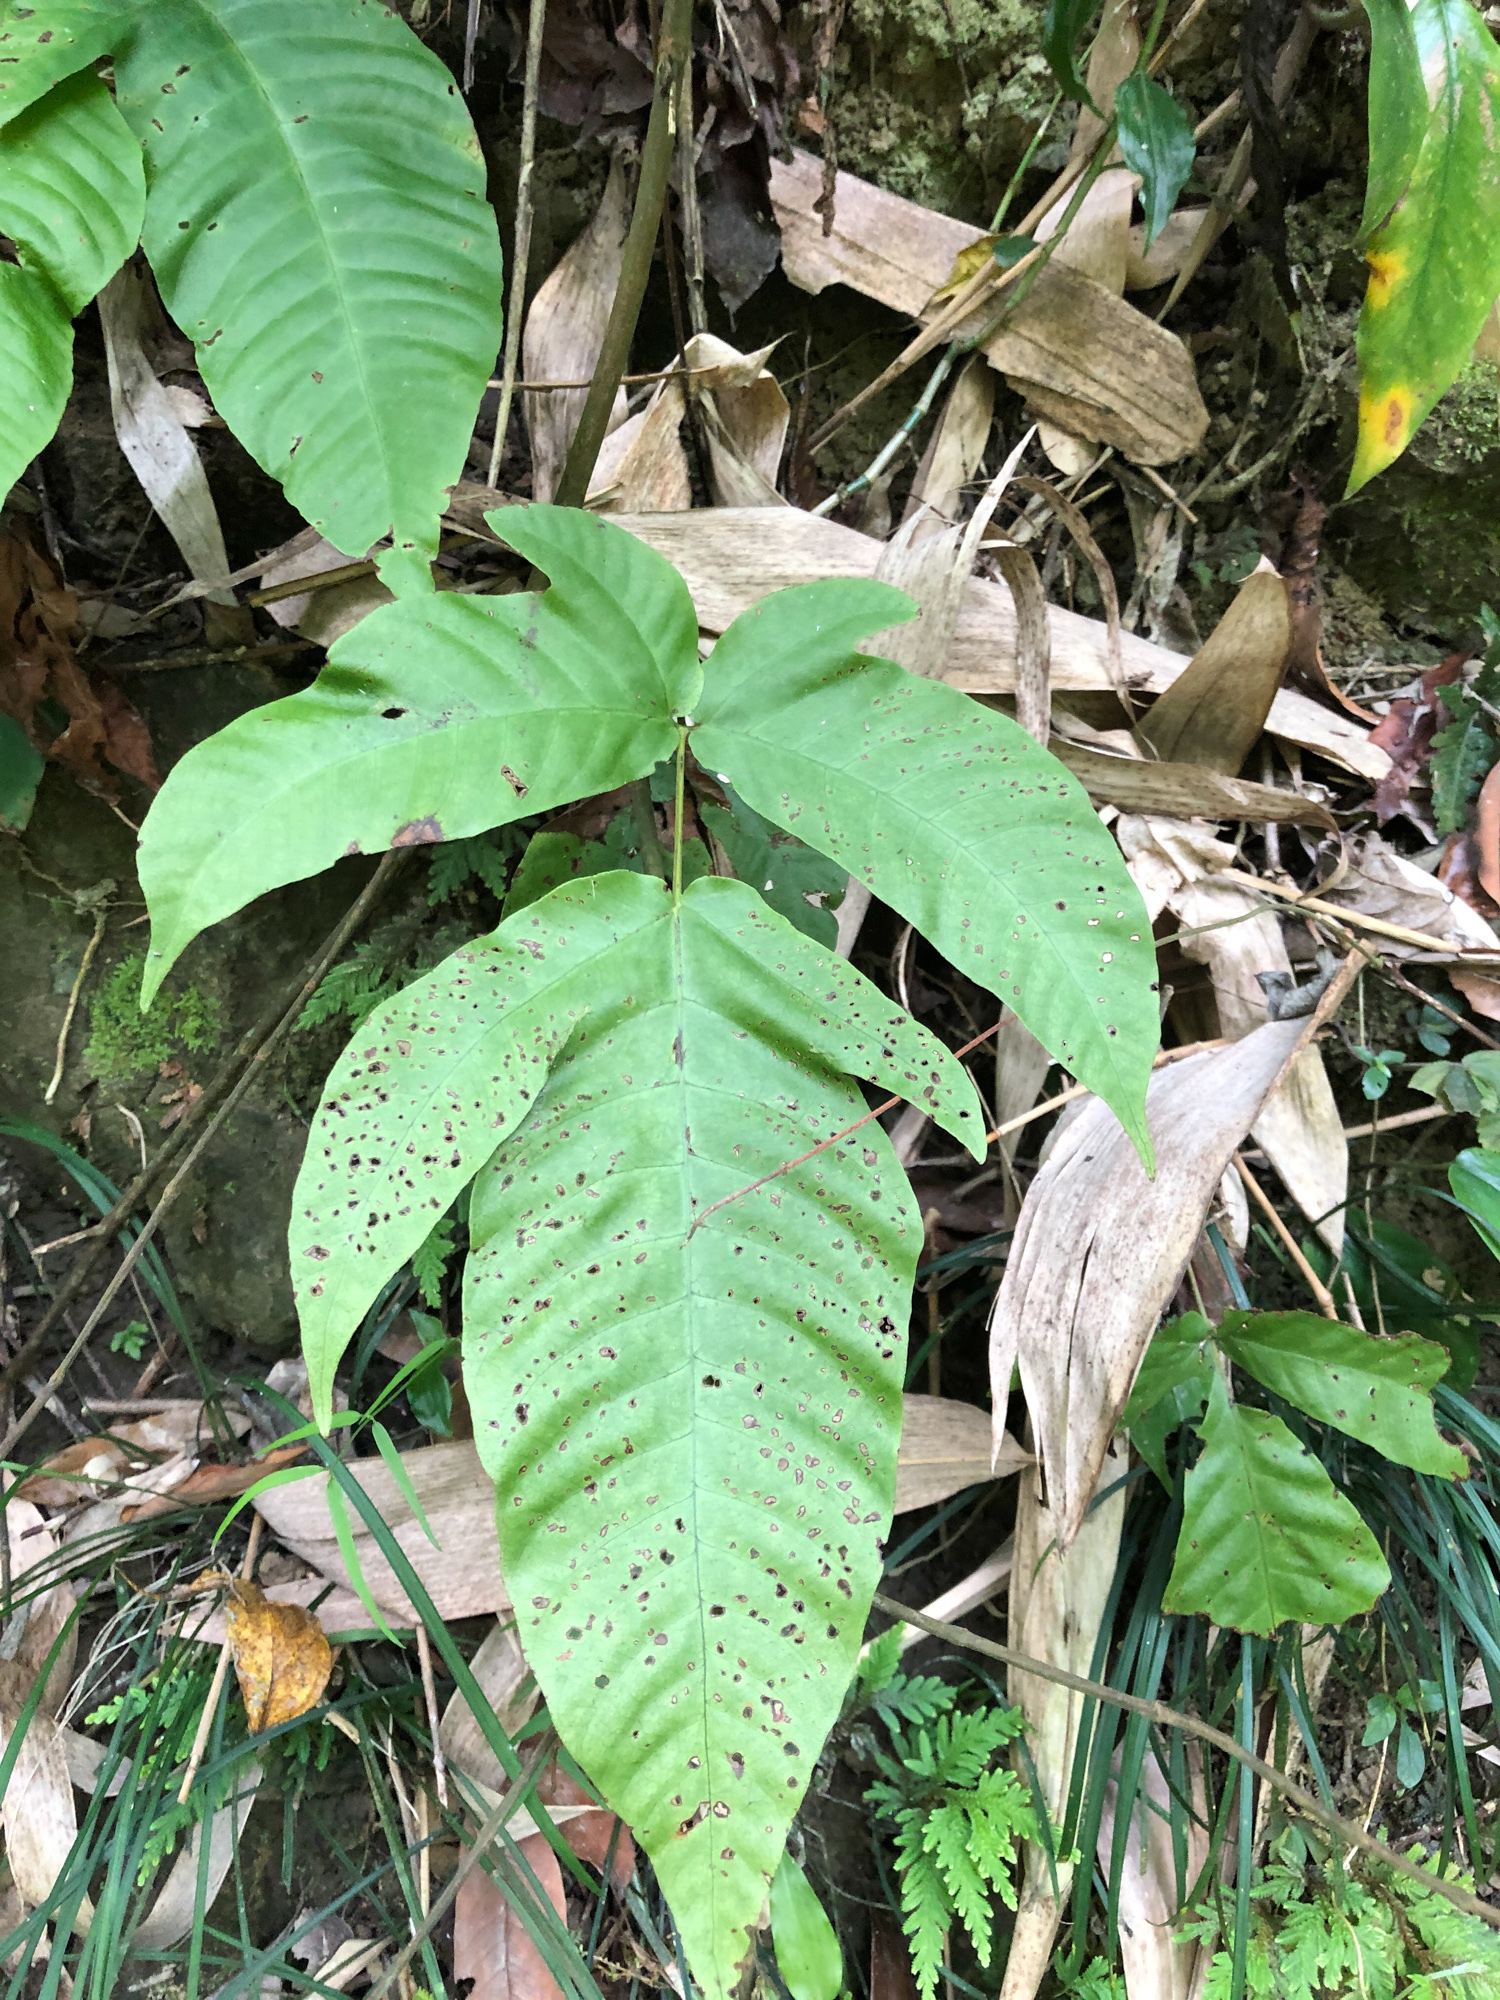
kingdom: Plantae
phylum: Tracheophyta
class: Polypodiopsida
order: Polypodiales
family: Tectariaceae
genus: Tectaria
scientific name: Tectaria polymorpha
